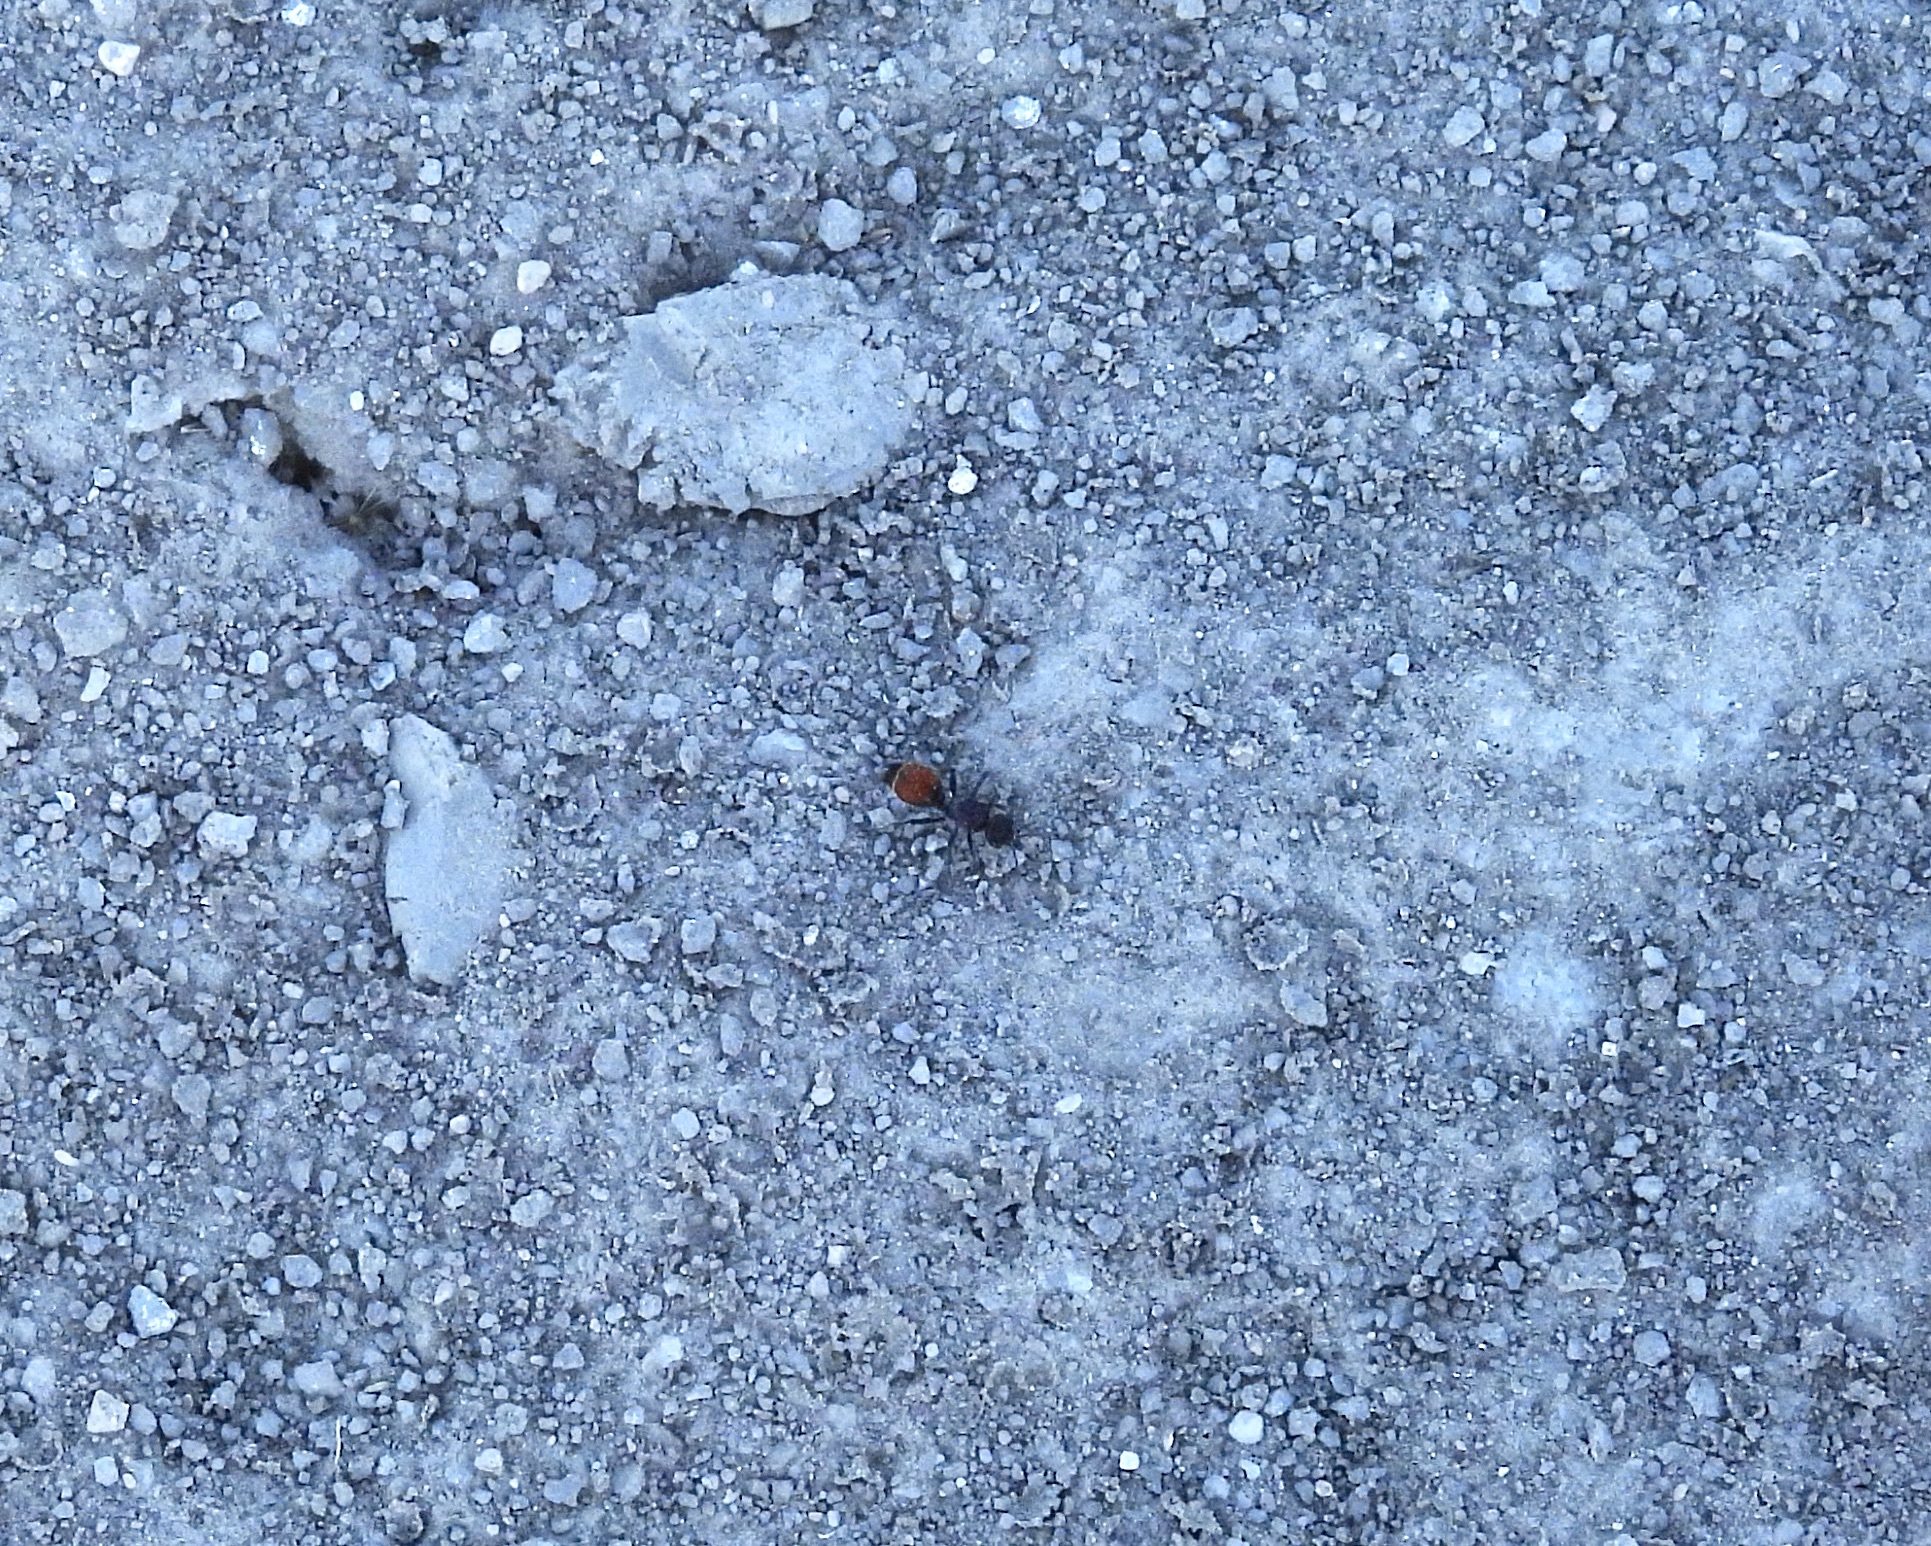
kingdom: Animalia
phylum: Arthropoda
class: Insecta
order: Hymenoptera
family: Mutillidae
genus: Dasymutilla
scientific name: Dasymutilla
